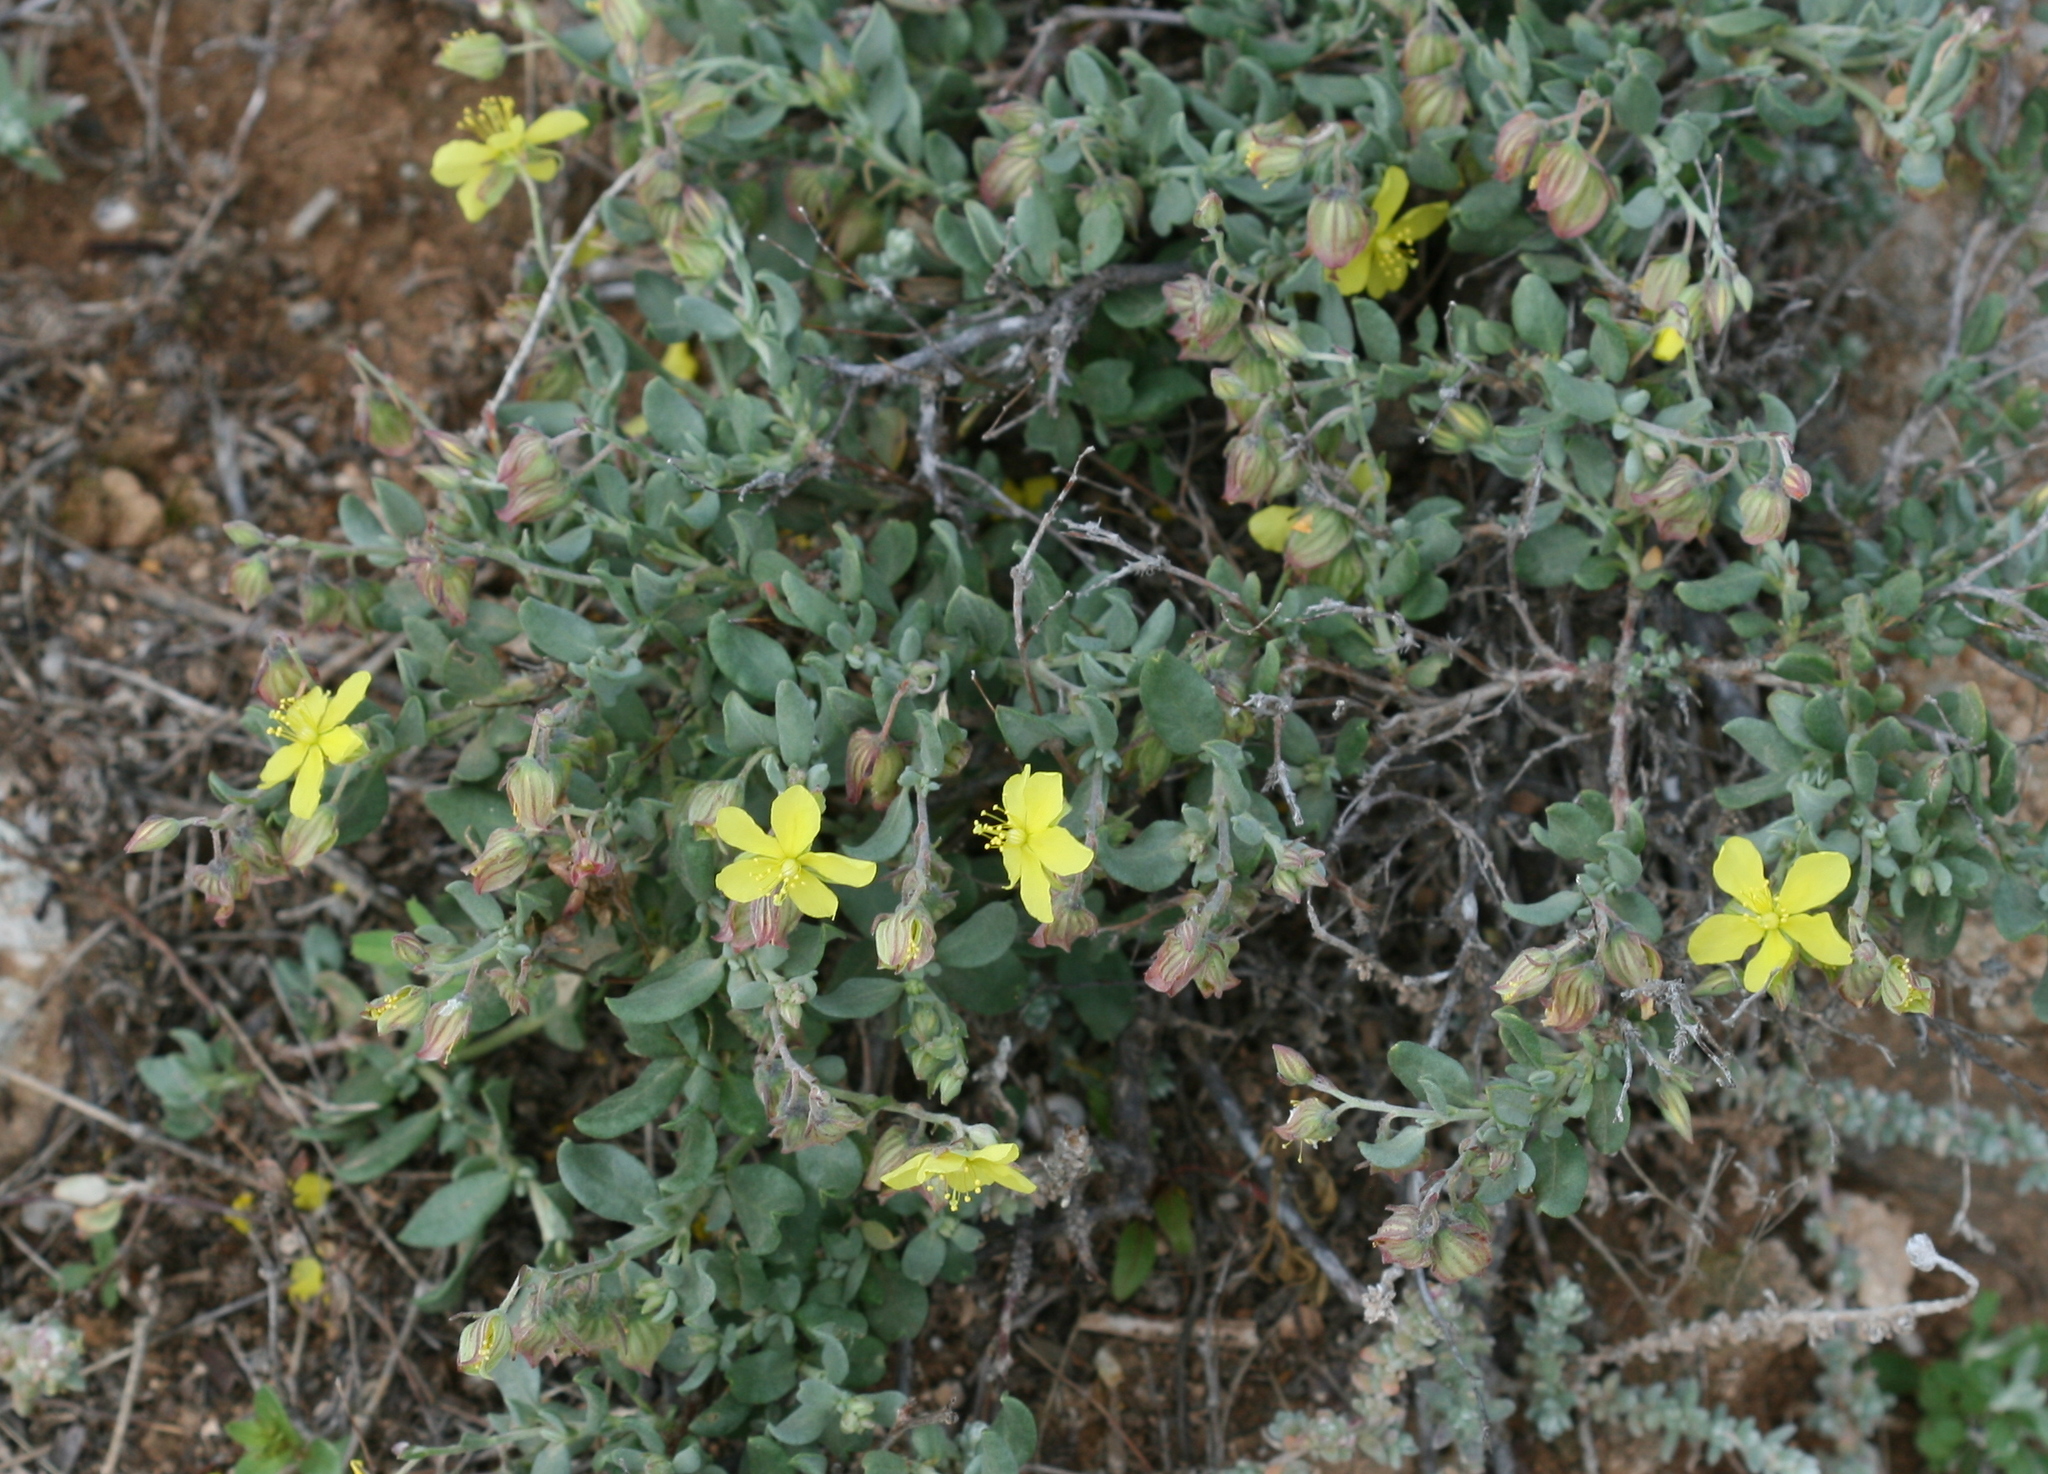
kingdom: Plantae
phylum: Tracheophyta
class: Magnoliopsida
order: Malvales
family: Cistaceae
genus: Helianthemum
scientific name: Helianthemum canariense
